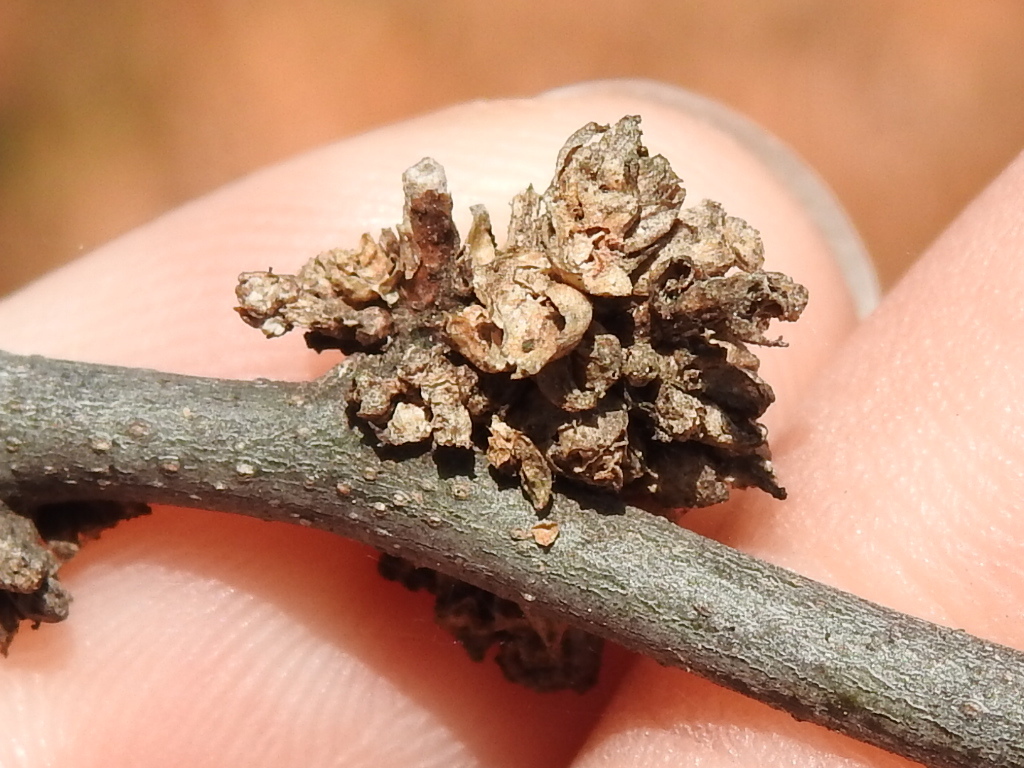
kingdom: Animalia
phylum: Arthropoda
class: Arachnida
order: Trombidiformes
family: Eriophyidae
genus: Aceria
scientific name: Aceria
